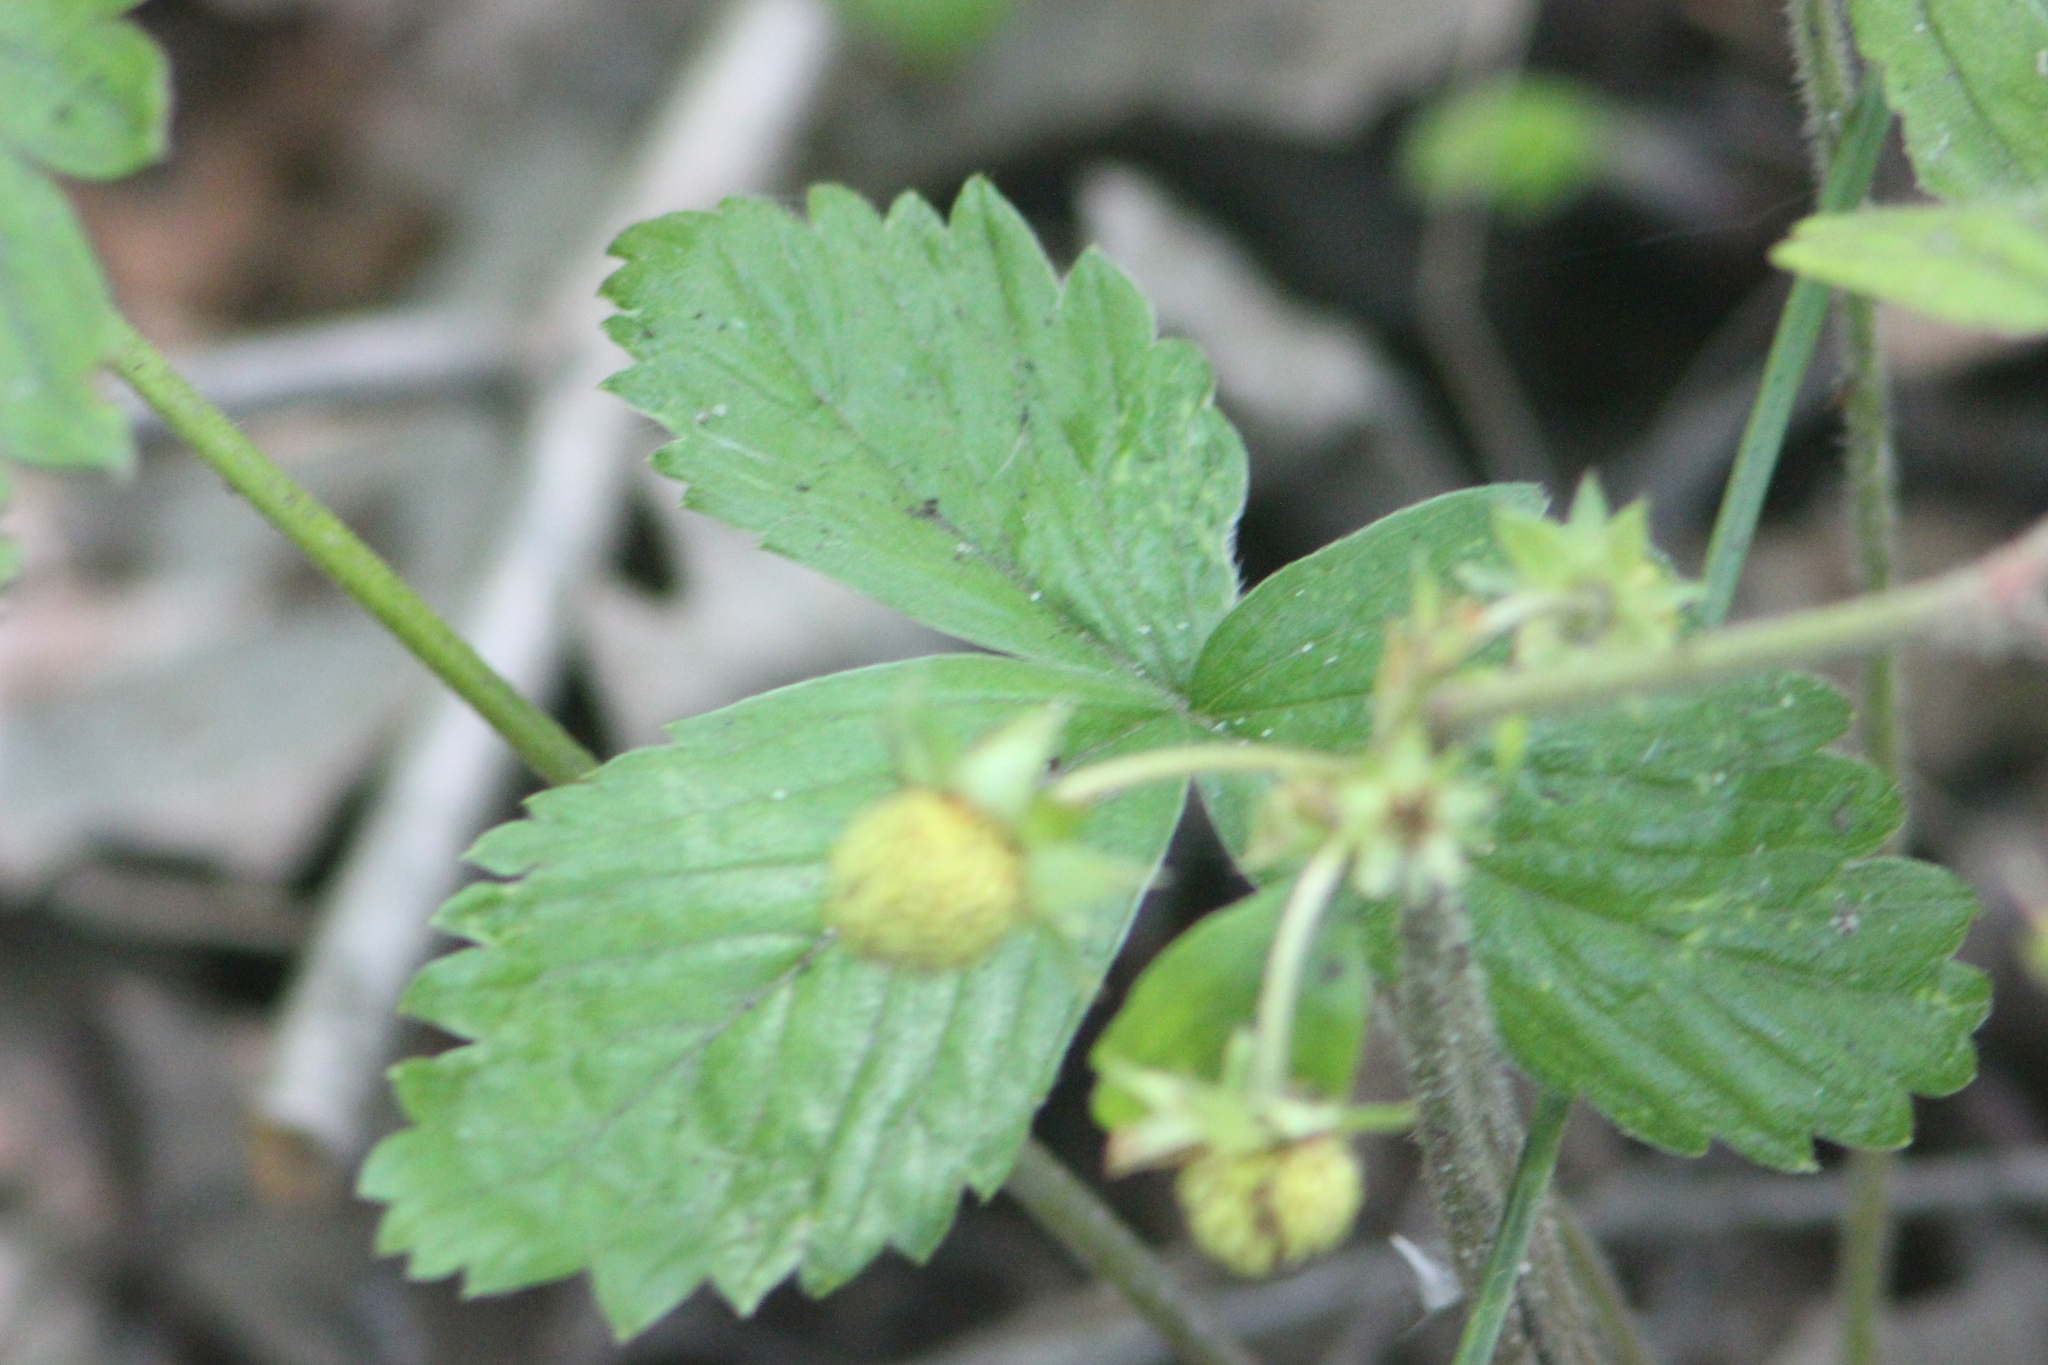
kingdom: Plantae
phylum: Tracheophyta
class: Magnoliopsida
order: Rosales
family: Rosaceae
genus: Fragaria
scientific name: Fragaria vesca
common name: Wild strawberry
